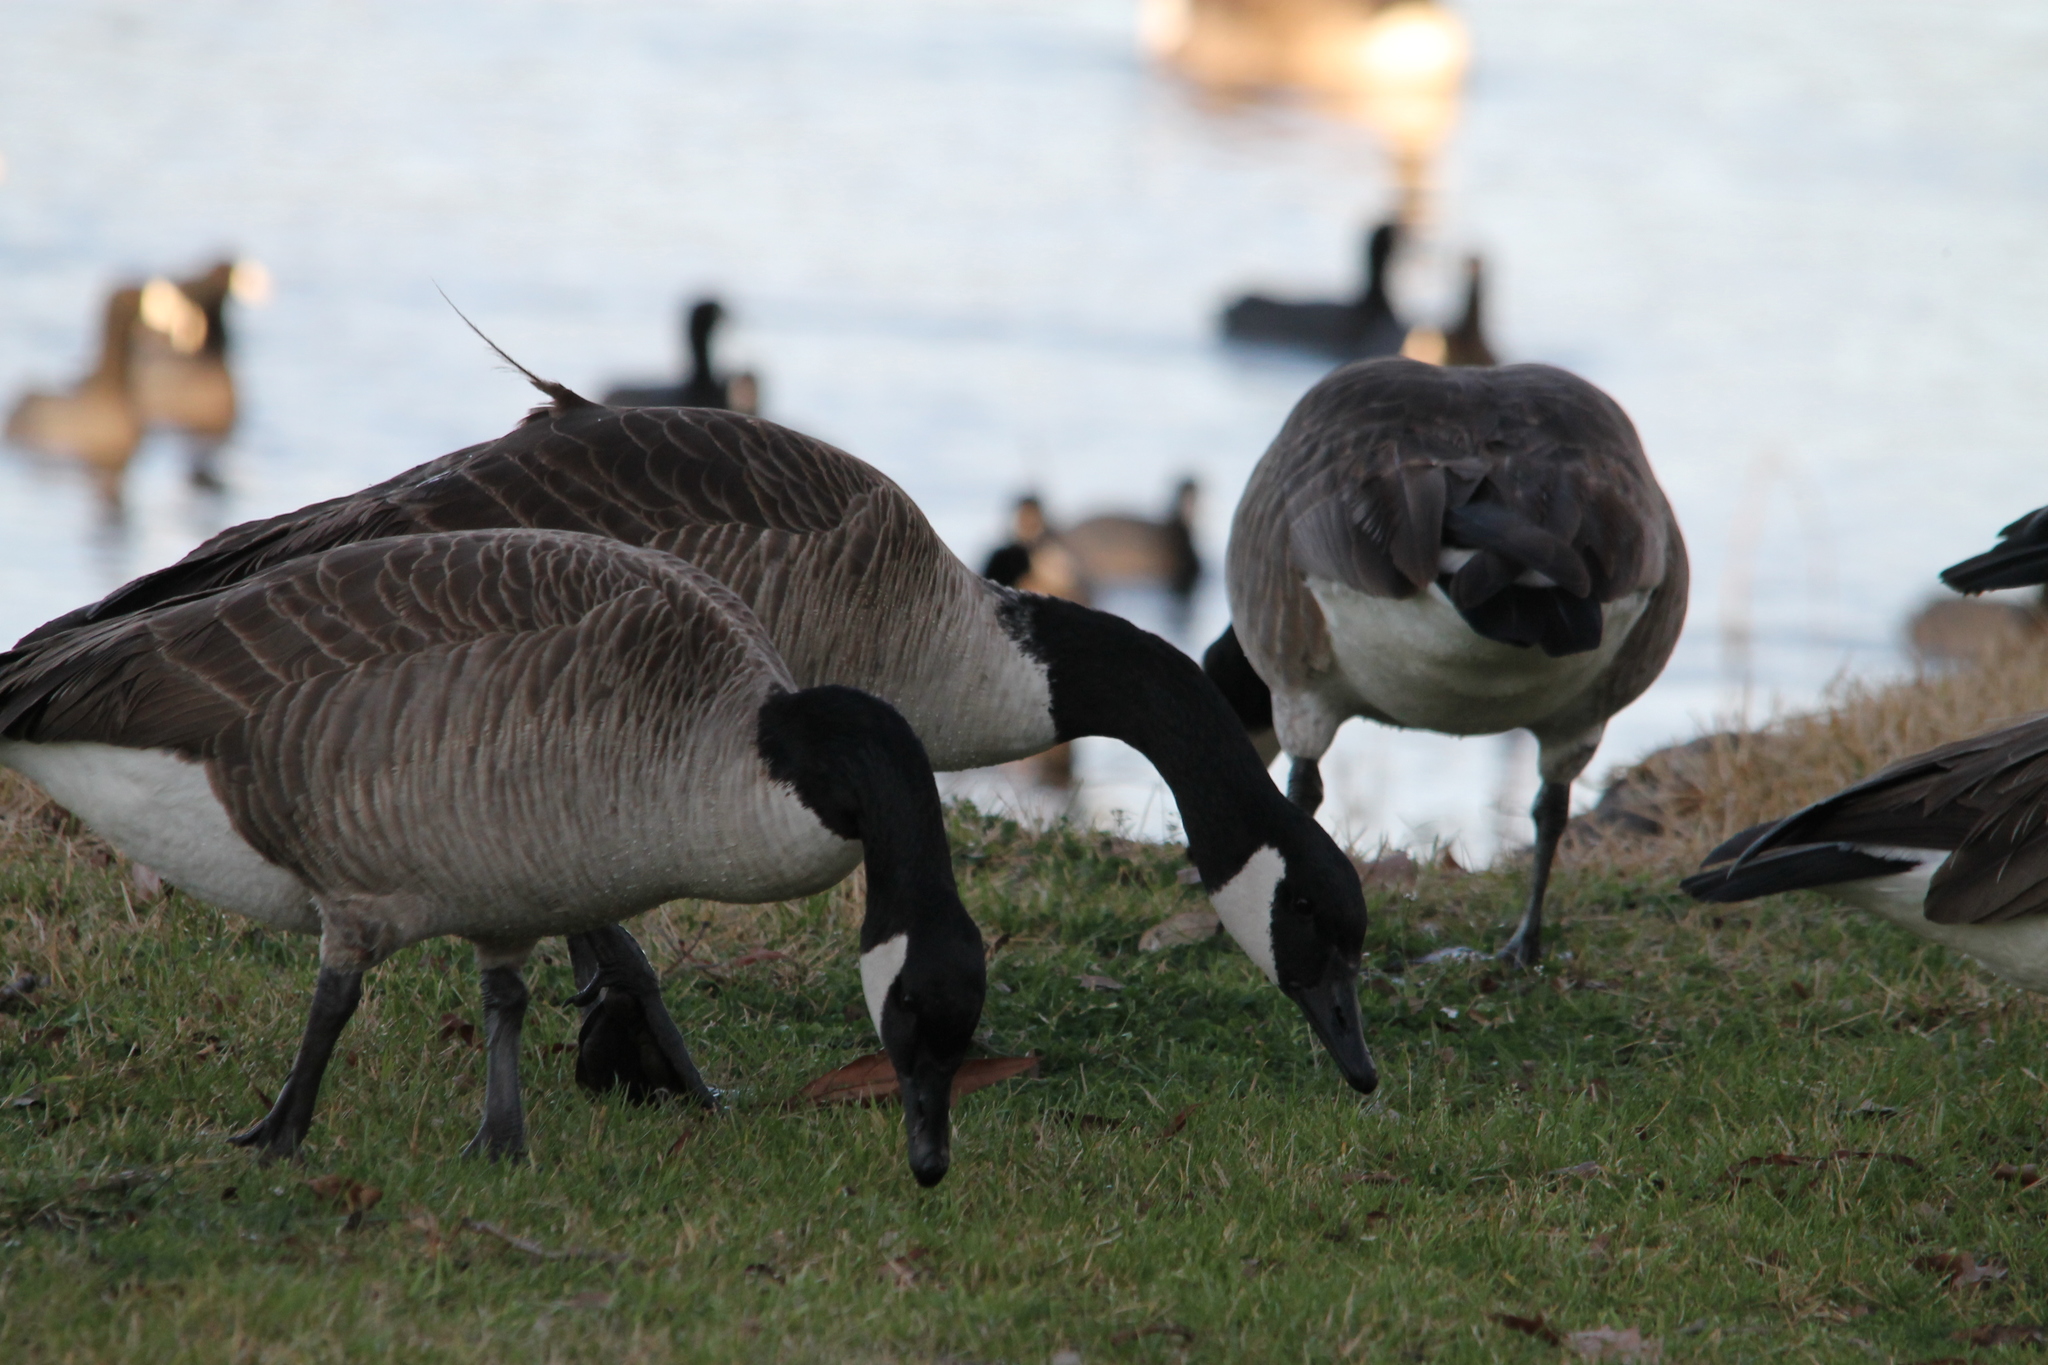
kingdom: Animalia
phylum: Chordata
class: Aves
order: Anseriformes
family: Anatidae
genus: Branta
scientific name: Branta canadensis
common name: Canada goose
